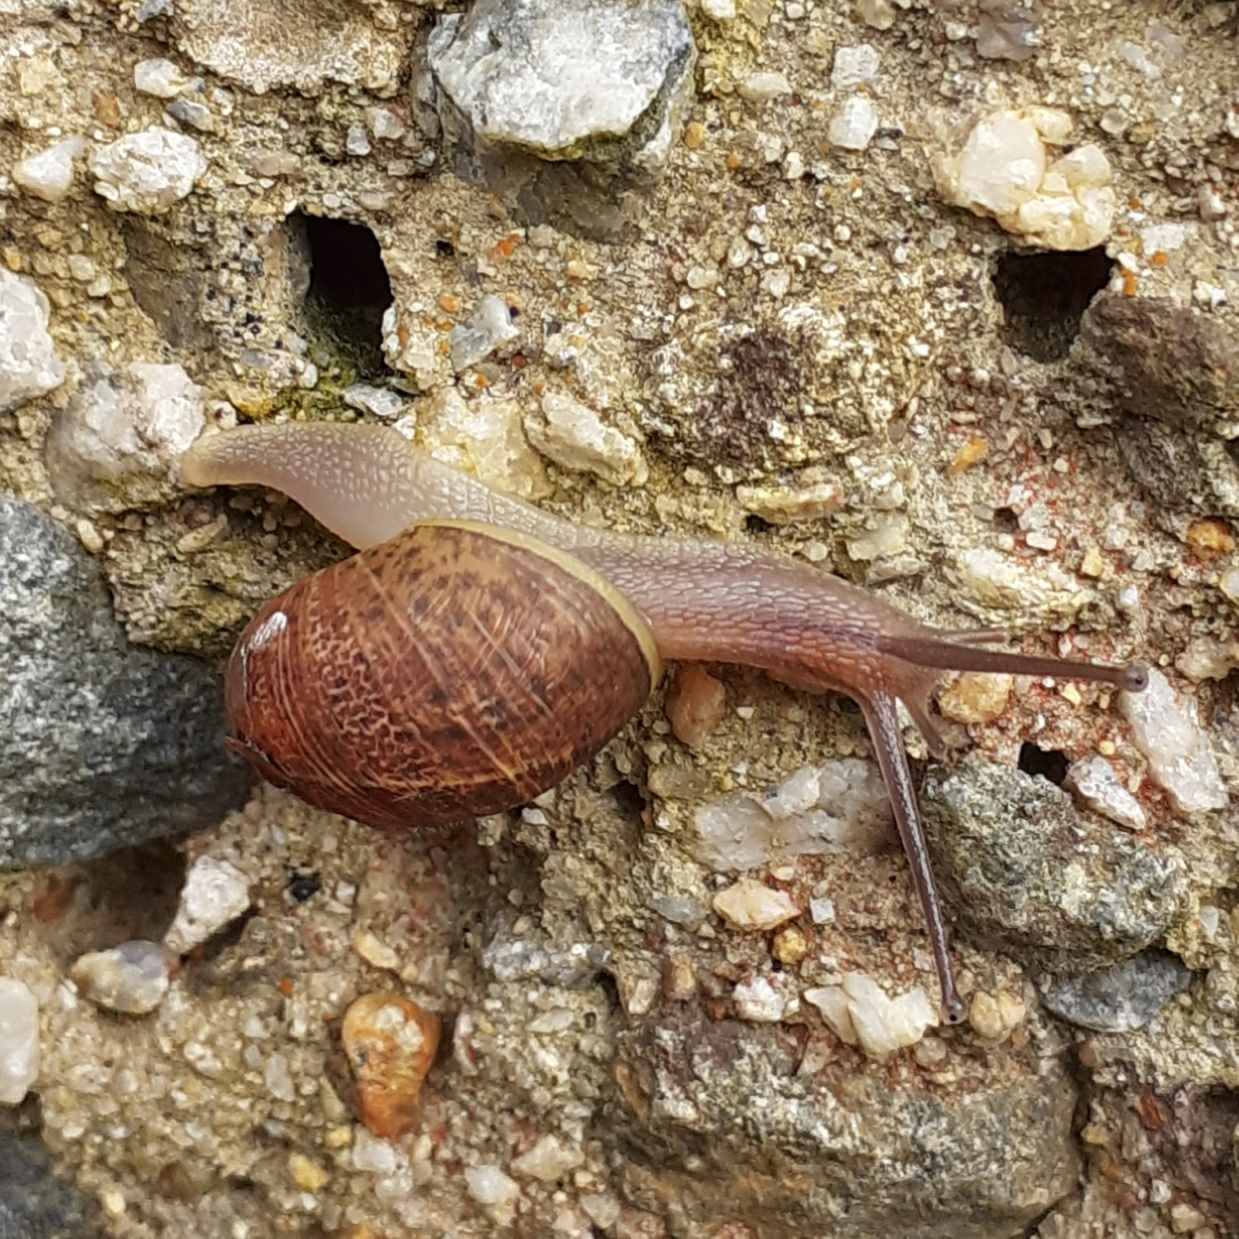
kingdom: Animalia
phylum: Mollusca
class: Gastropoda
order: Stylommatophora
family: Helicidae
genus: Cornu
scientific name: Cornu aspersum
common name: Brown garden snail
